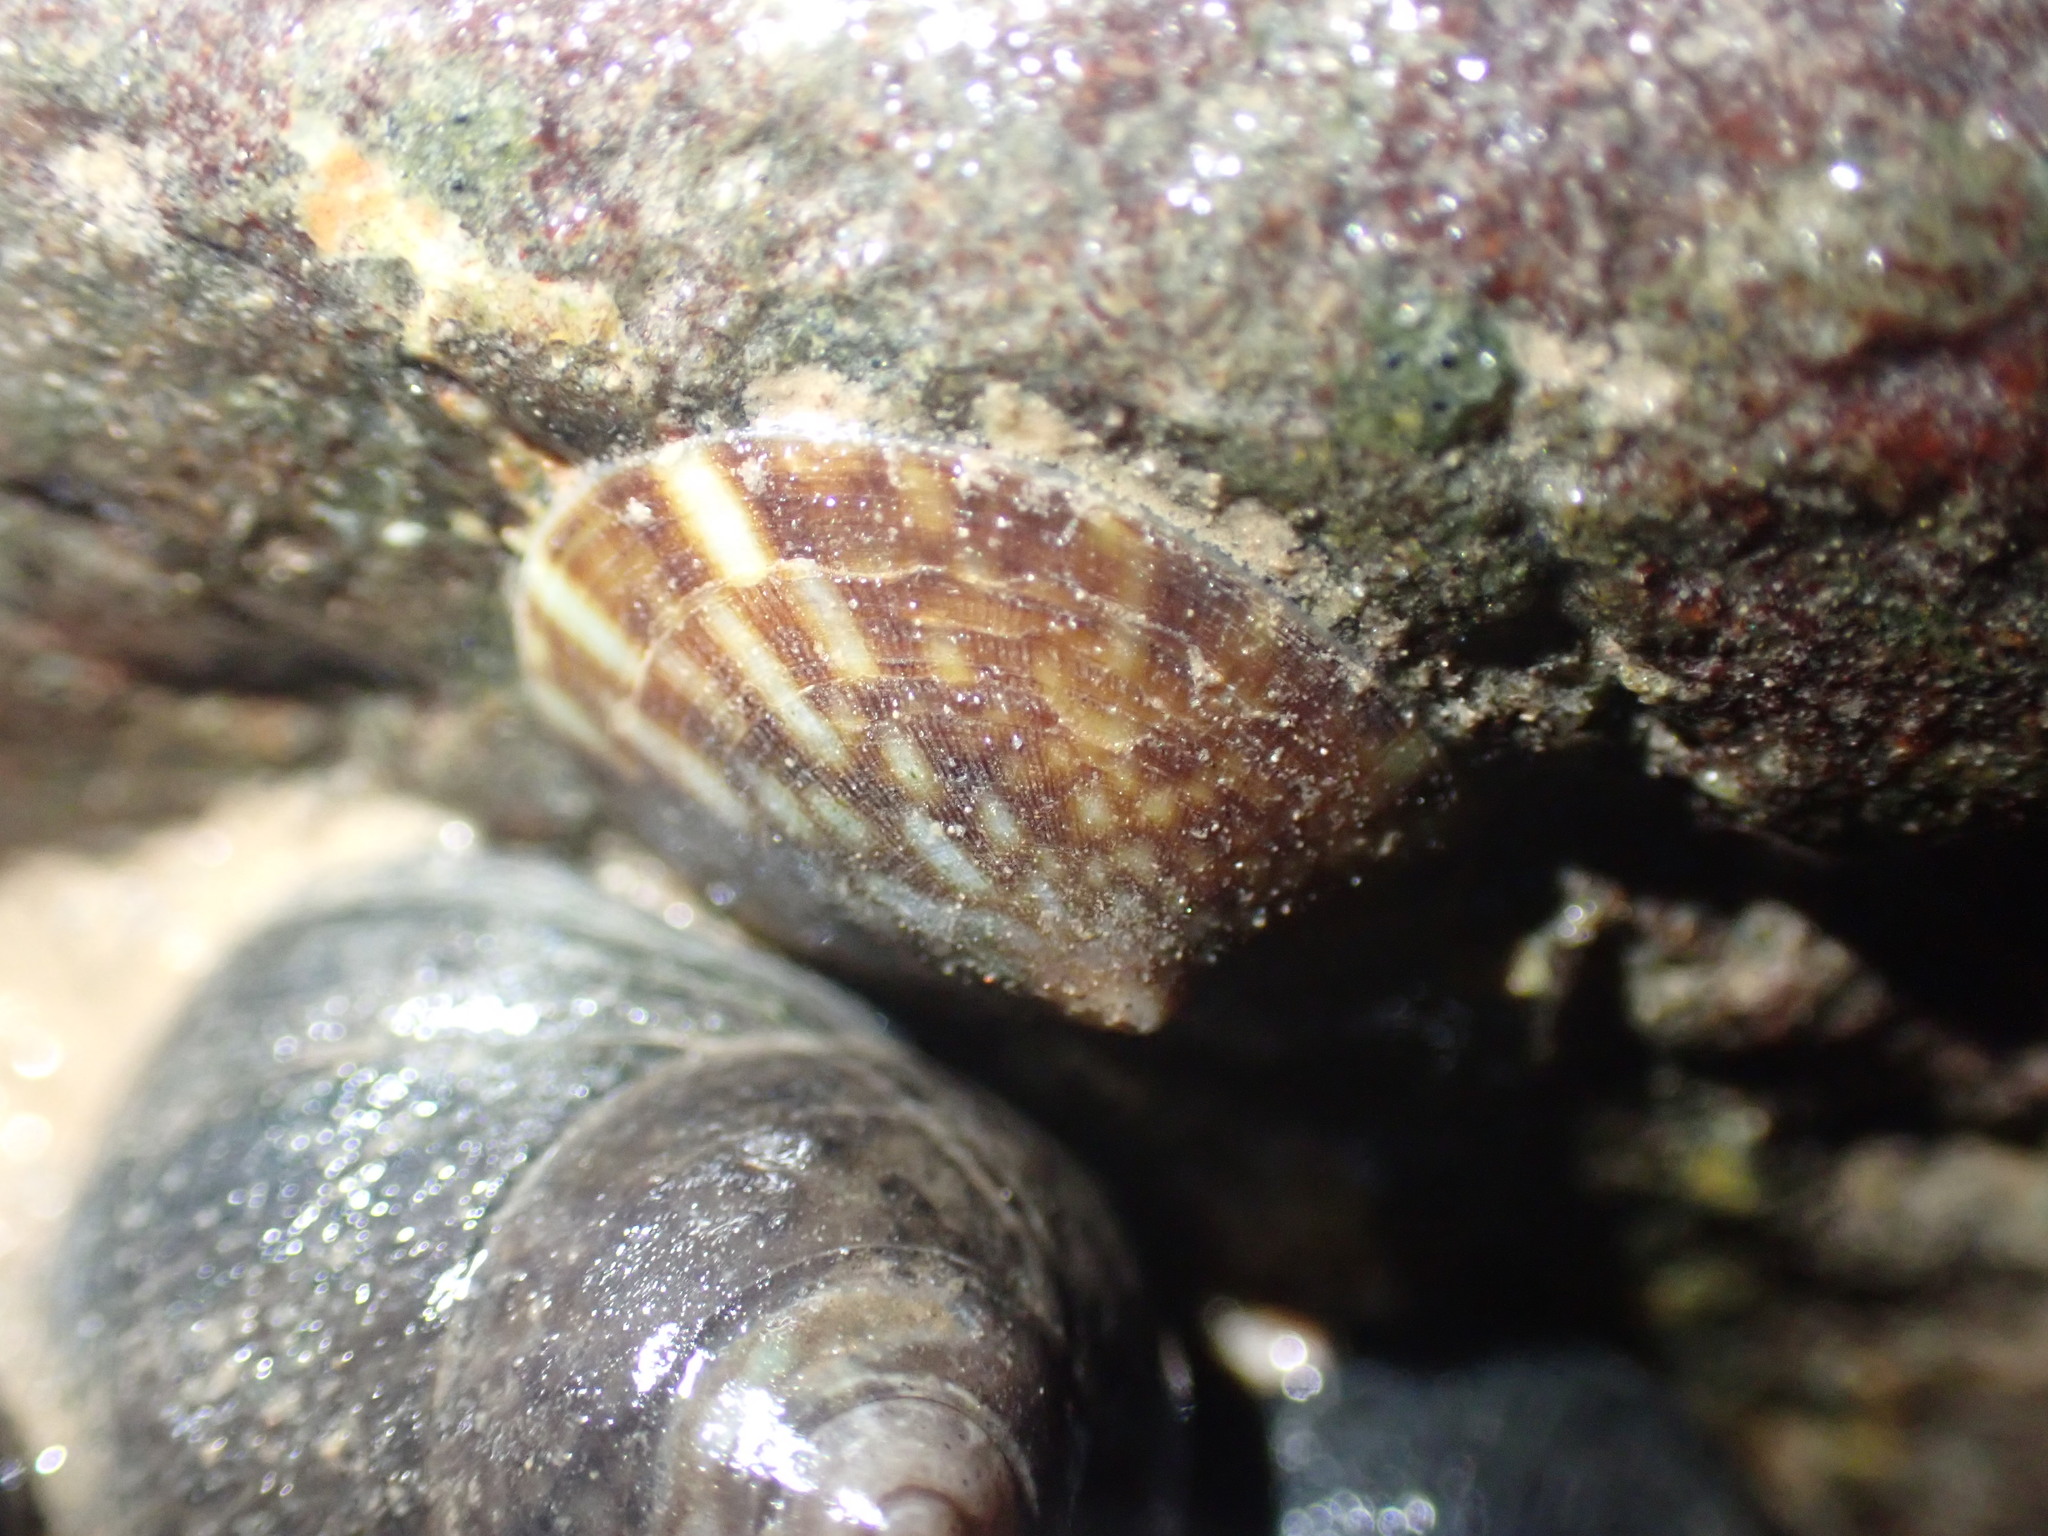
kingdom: Animalia
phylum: Mollusca
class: Gastropoda
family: Lottiidae
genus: Testudinalia
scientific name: Testudinalia testudinalis
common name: Common tortoiseshell limpet
